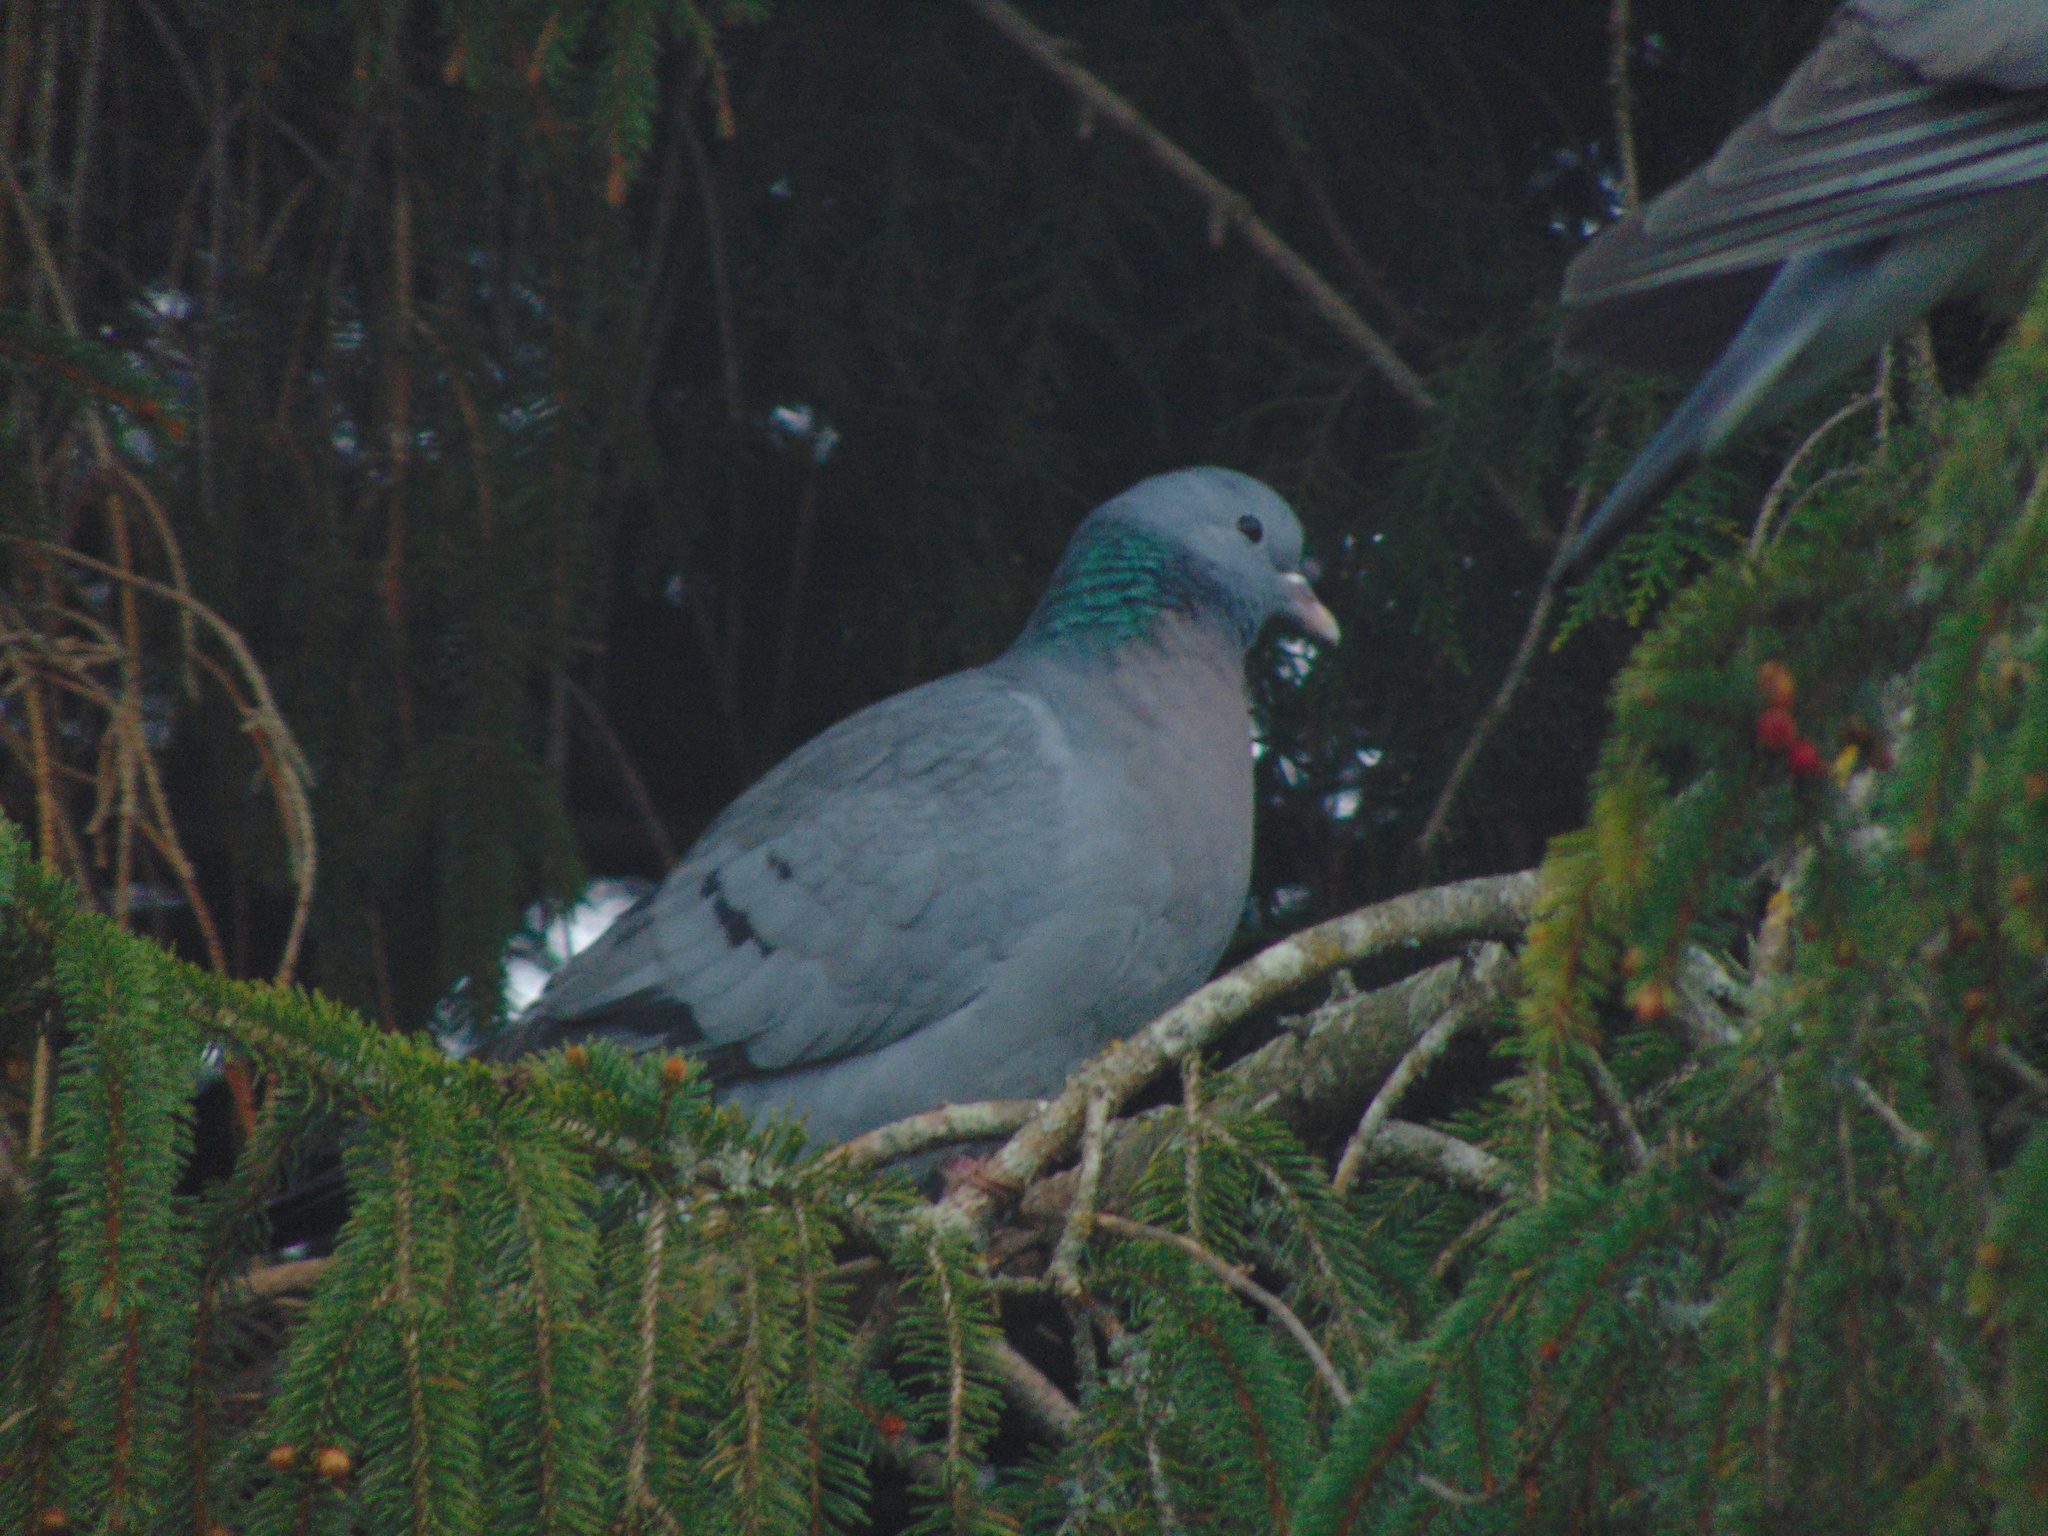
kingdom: Animalia
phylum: Chordata
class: Aves
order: Columbiformes
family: Columbidae
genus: Columba
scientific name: Columba oenas
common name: Stock dove
